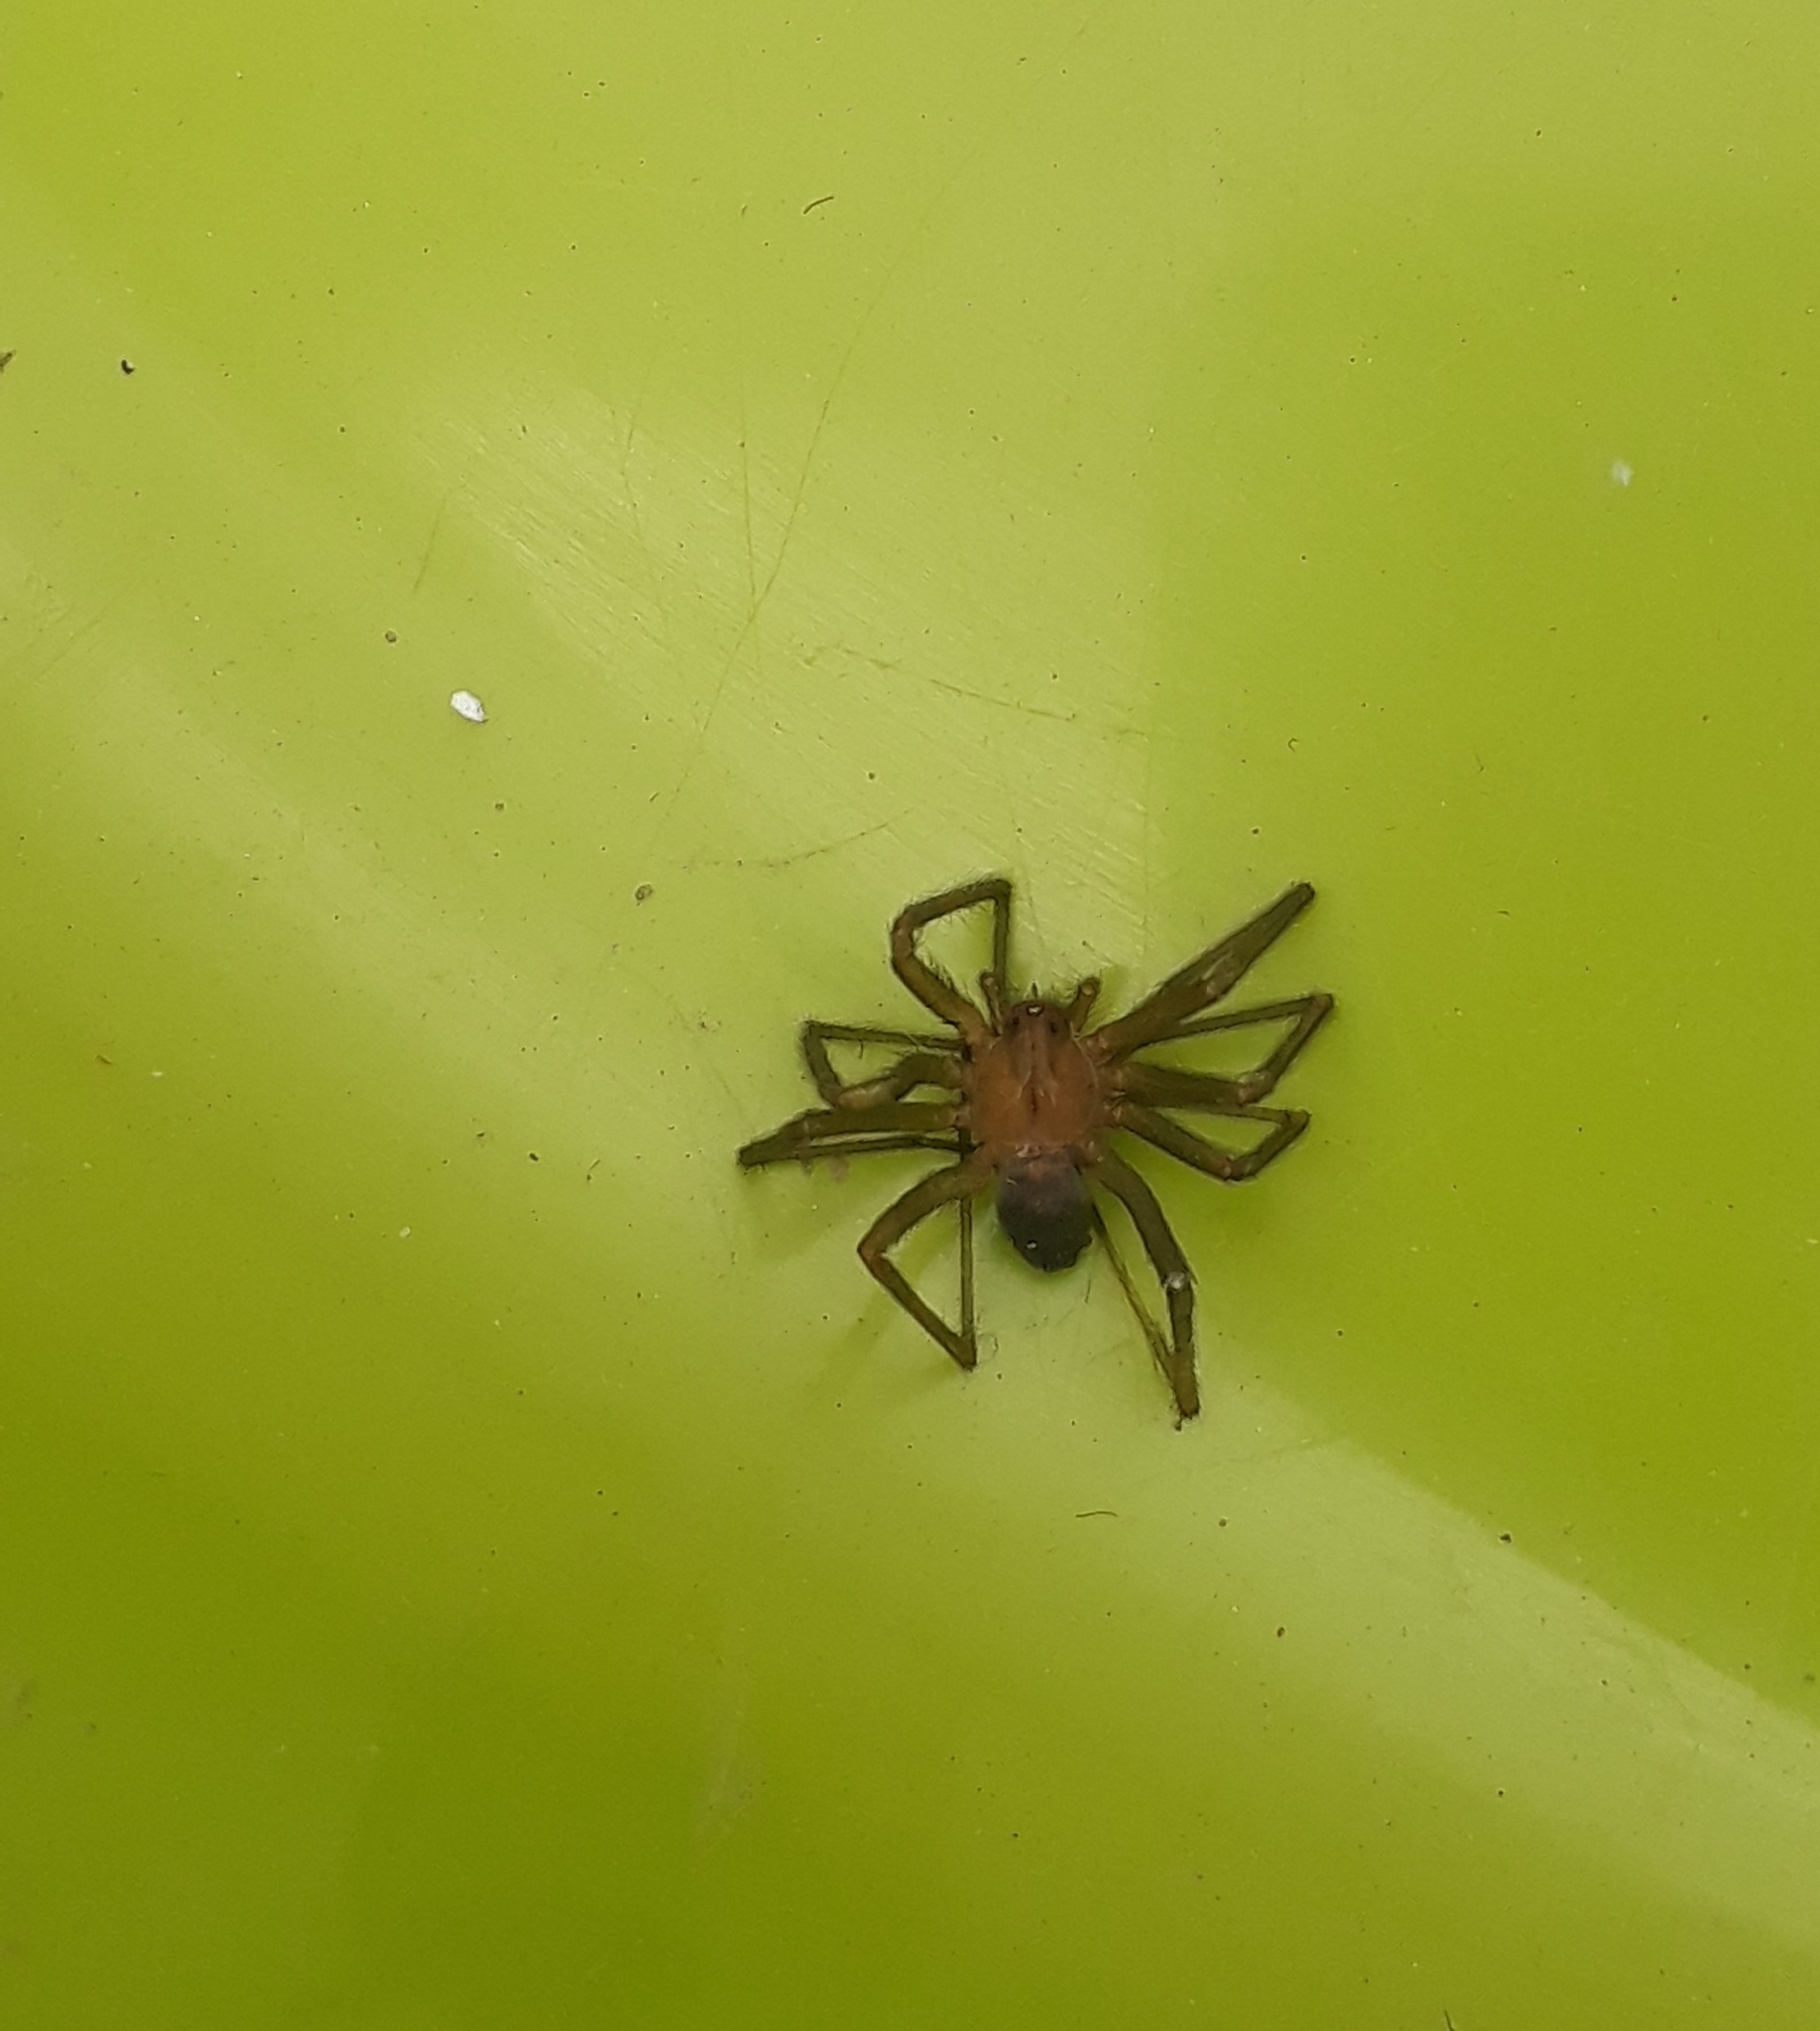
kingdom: Animalia
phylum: Arthropoda
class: Arachnida
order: Araneae
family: Sicariidae
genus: Loxosceles
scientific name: Loxosceles laeta
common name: Chilean recluse spider
